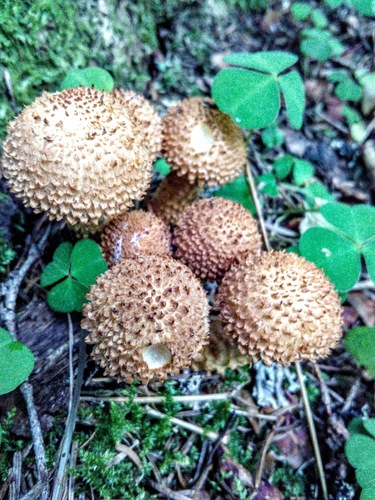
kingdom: Fungi
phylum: Basidiomycota
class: Agaricomycetes
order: Agaricales
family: Strophariaceae
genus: Pholiota
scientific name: Pholiota squarrosa
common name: Shaggy pholiota
